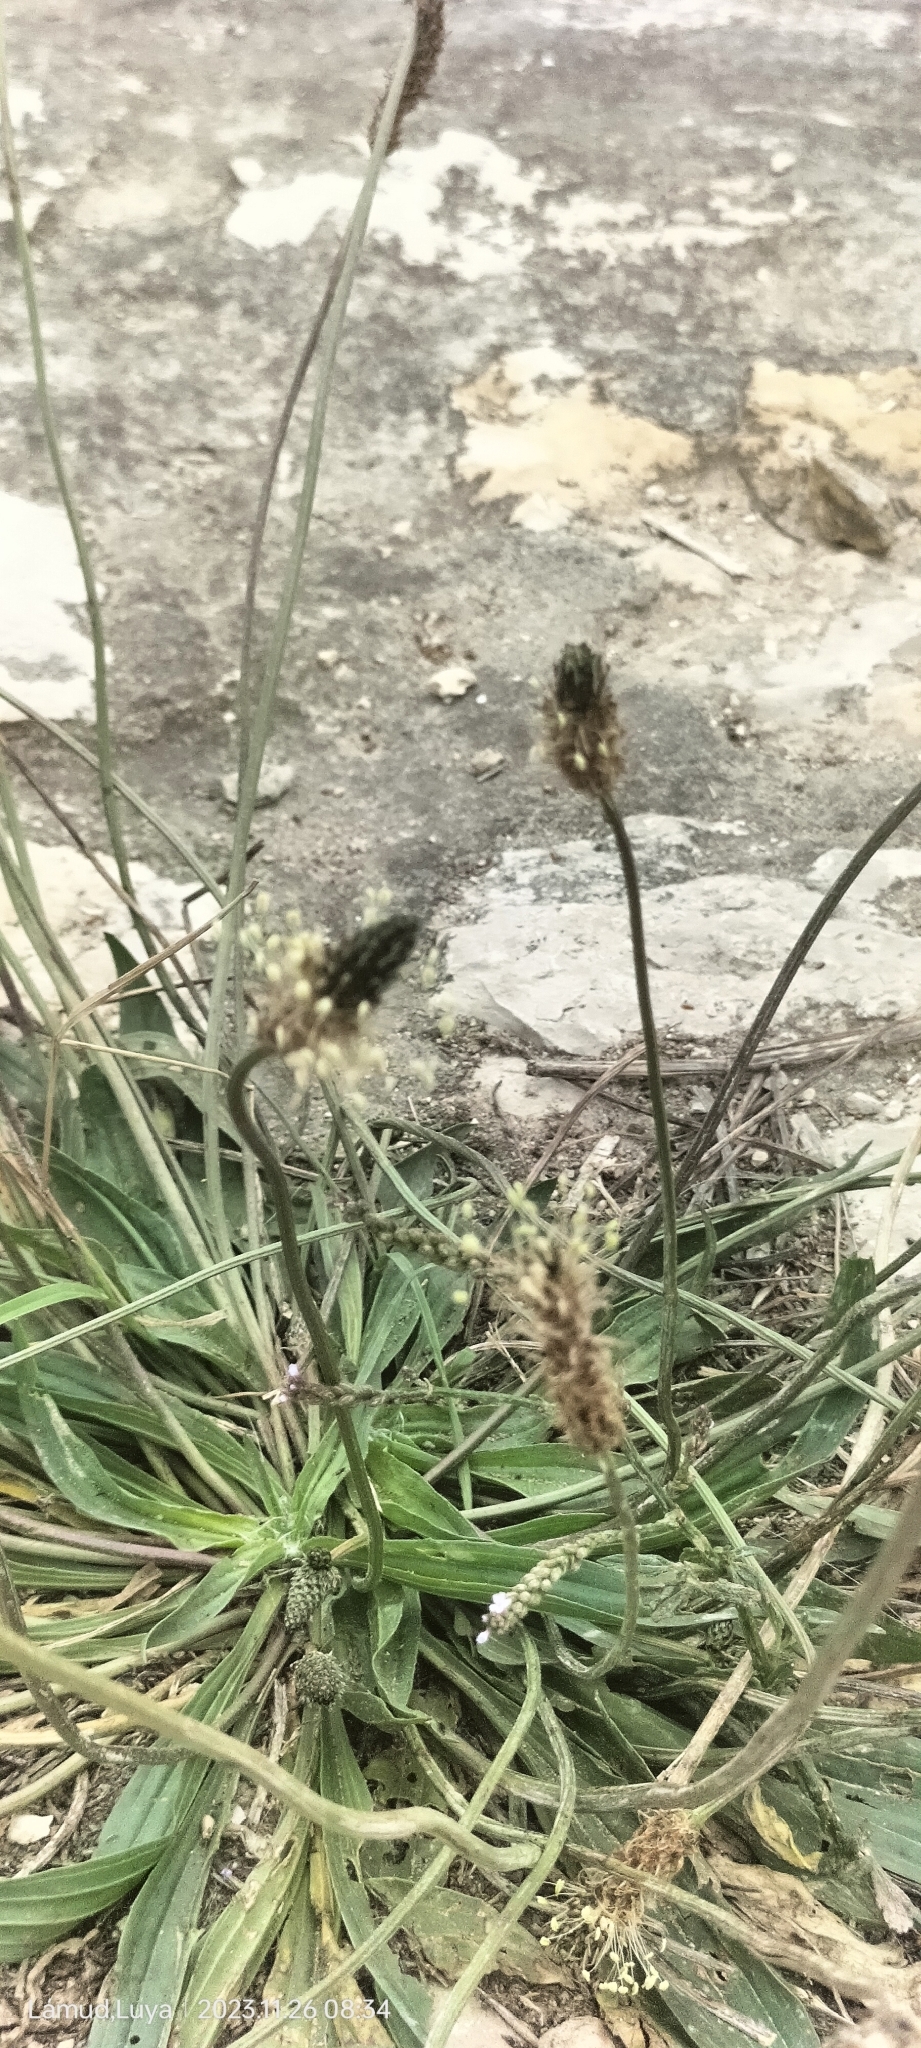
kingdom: Plantae
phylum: Tracheophyta
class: Magnoliopsida
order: Lamiales
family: Plantaginaceae
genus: Plantago
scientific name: Plantago lanceolata
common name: Ribwort plantain
